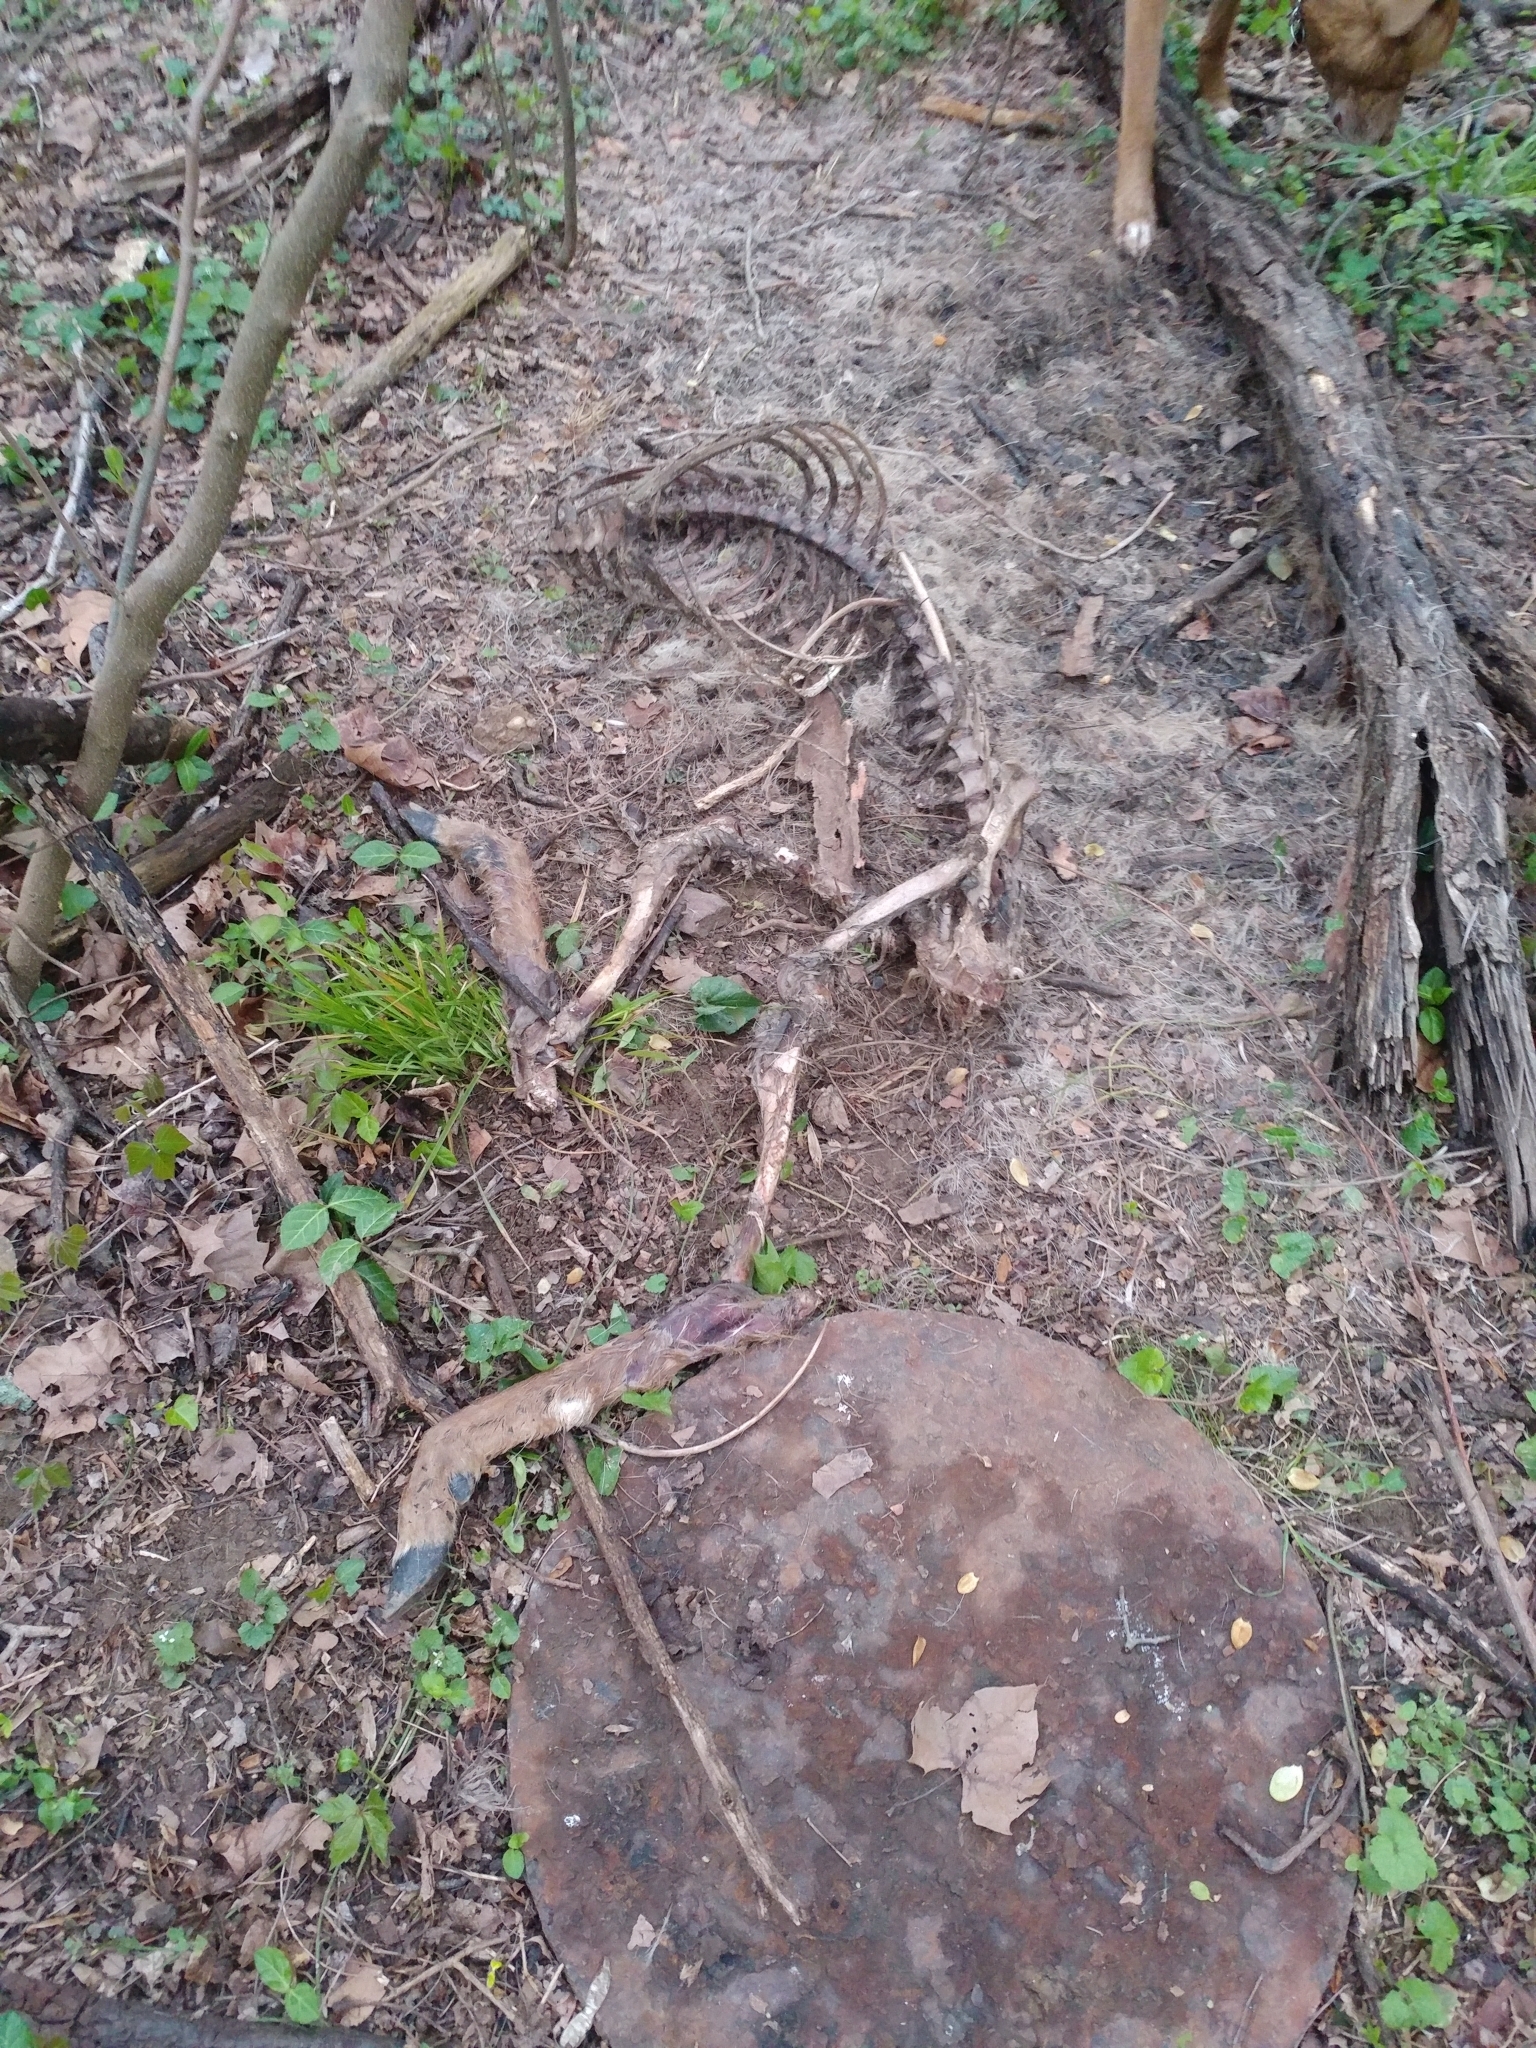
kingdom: Animalia
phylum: Chordata
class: Mammalia
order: Artiodactyla
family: Cervidae
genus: Odocoileus
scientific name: Odocoileus virginianus
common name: White-tailed deer
